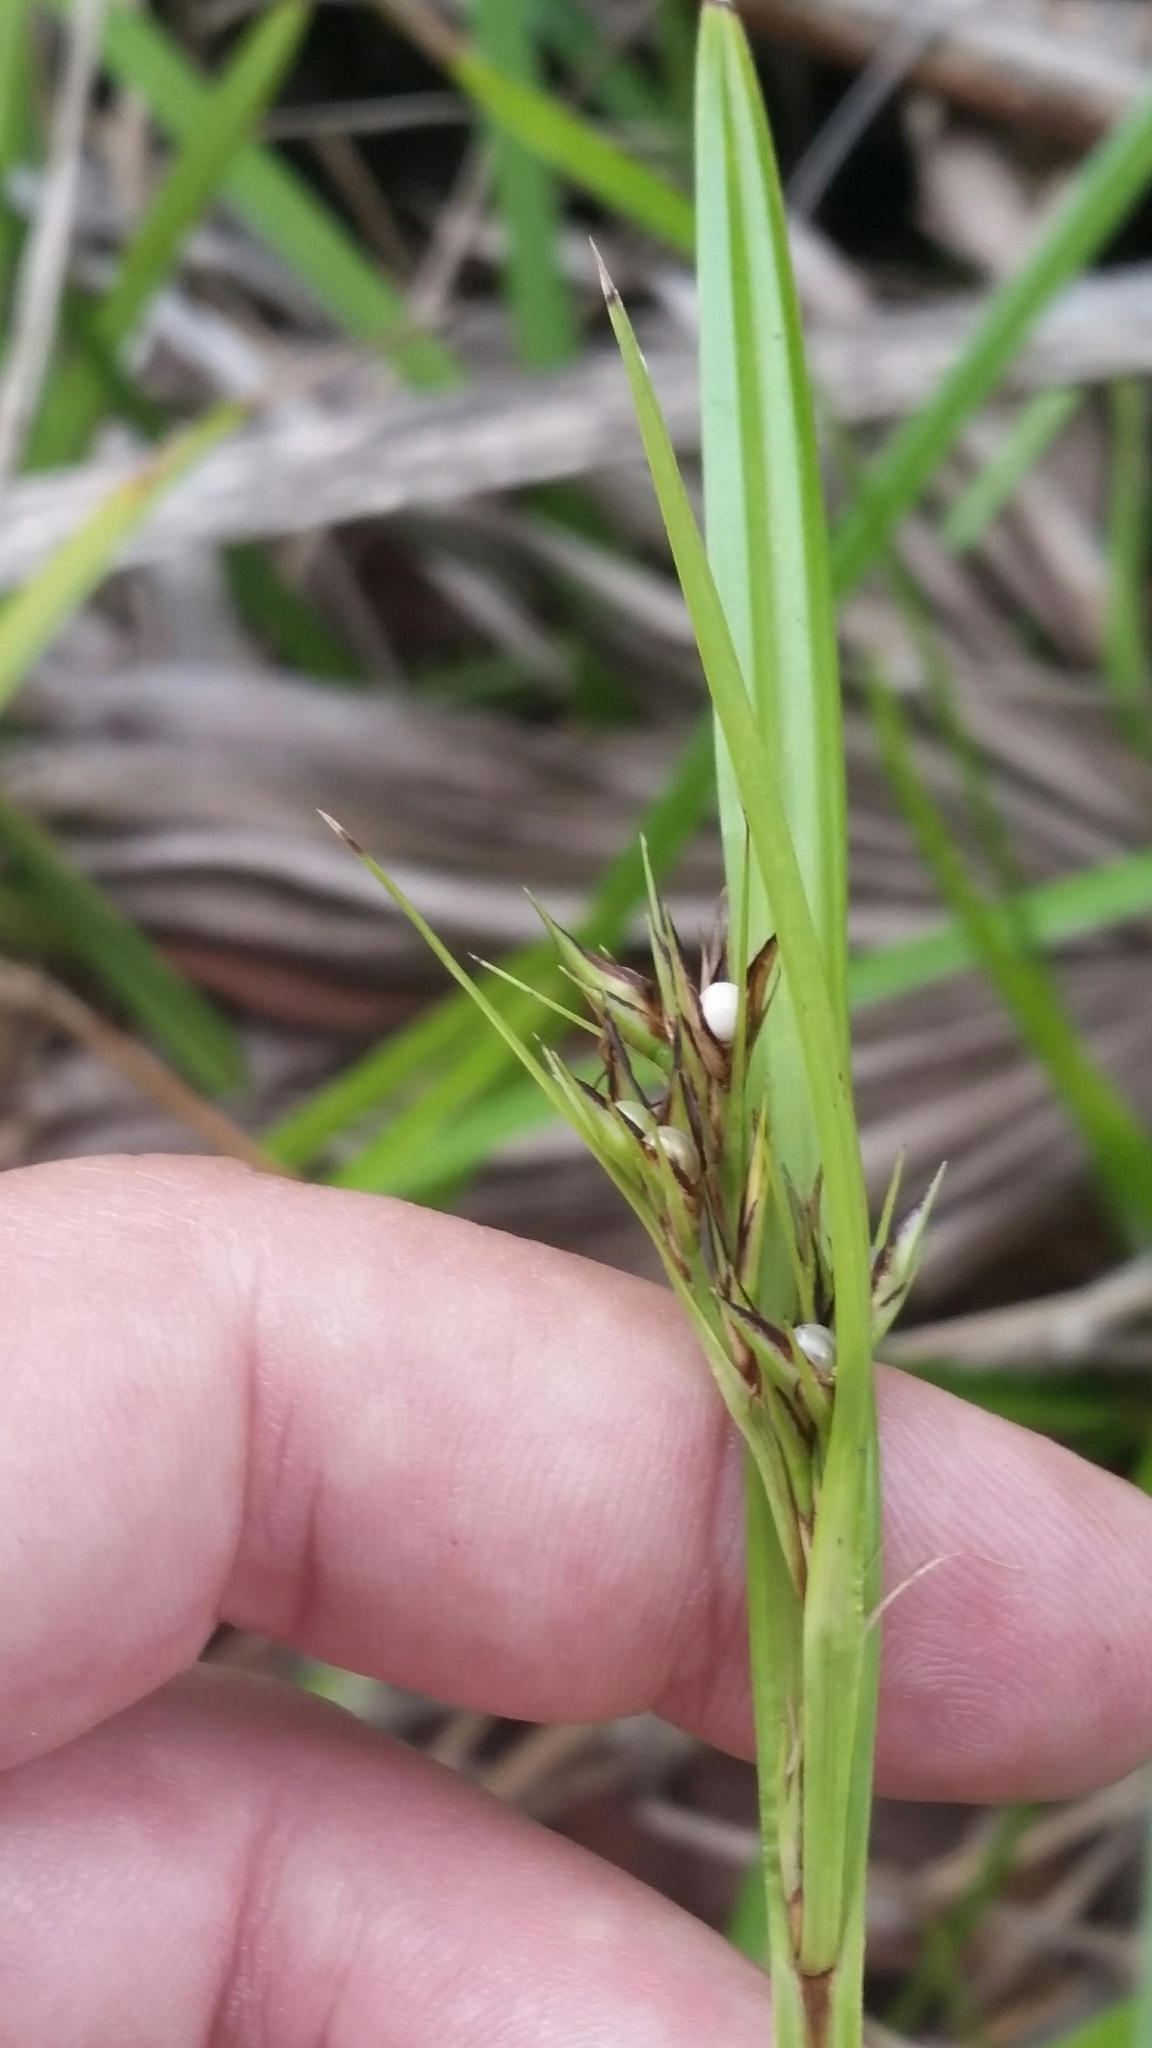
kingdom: Plantae
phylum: Tracheophyta
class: Liliopsida
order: Poales
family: Cyperaceae
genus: Scleria
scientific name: Scleria triglomerata
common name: Whip nutrush
